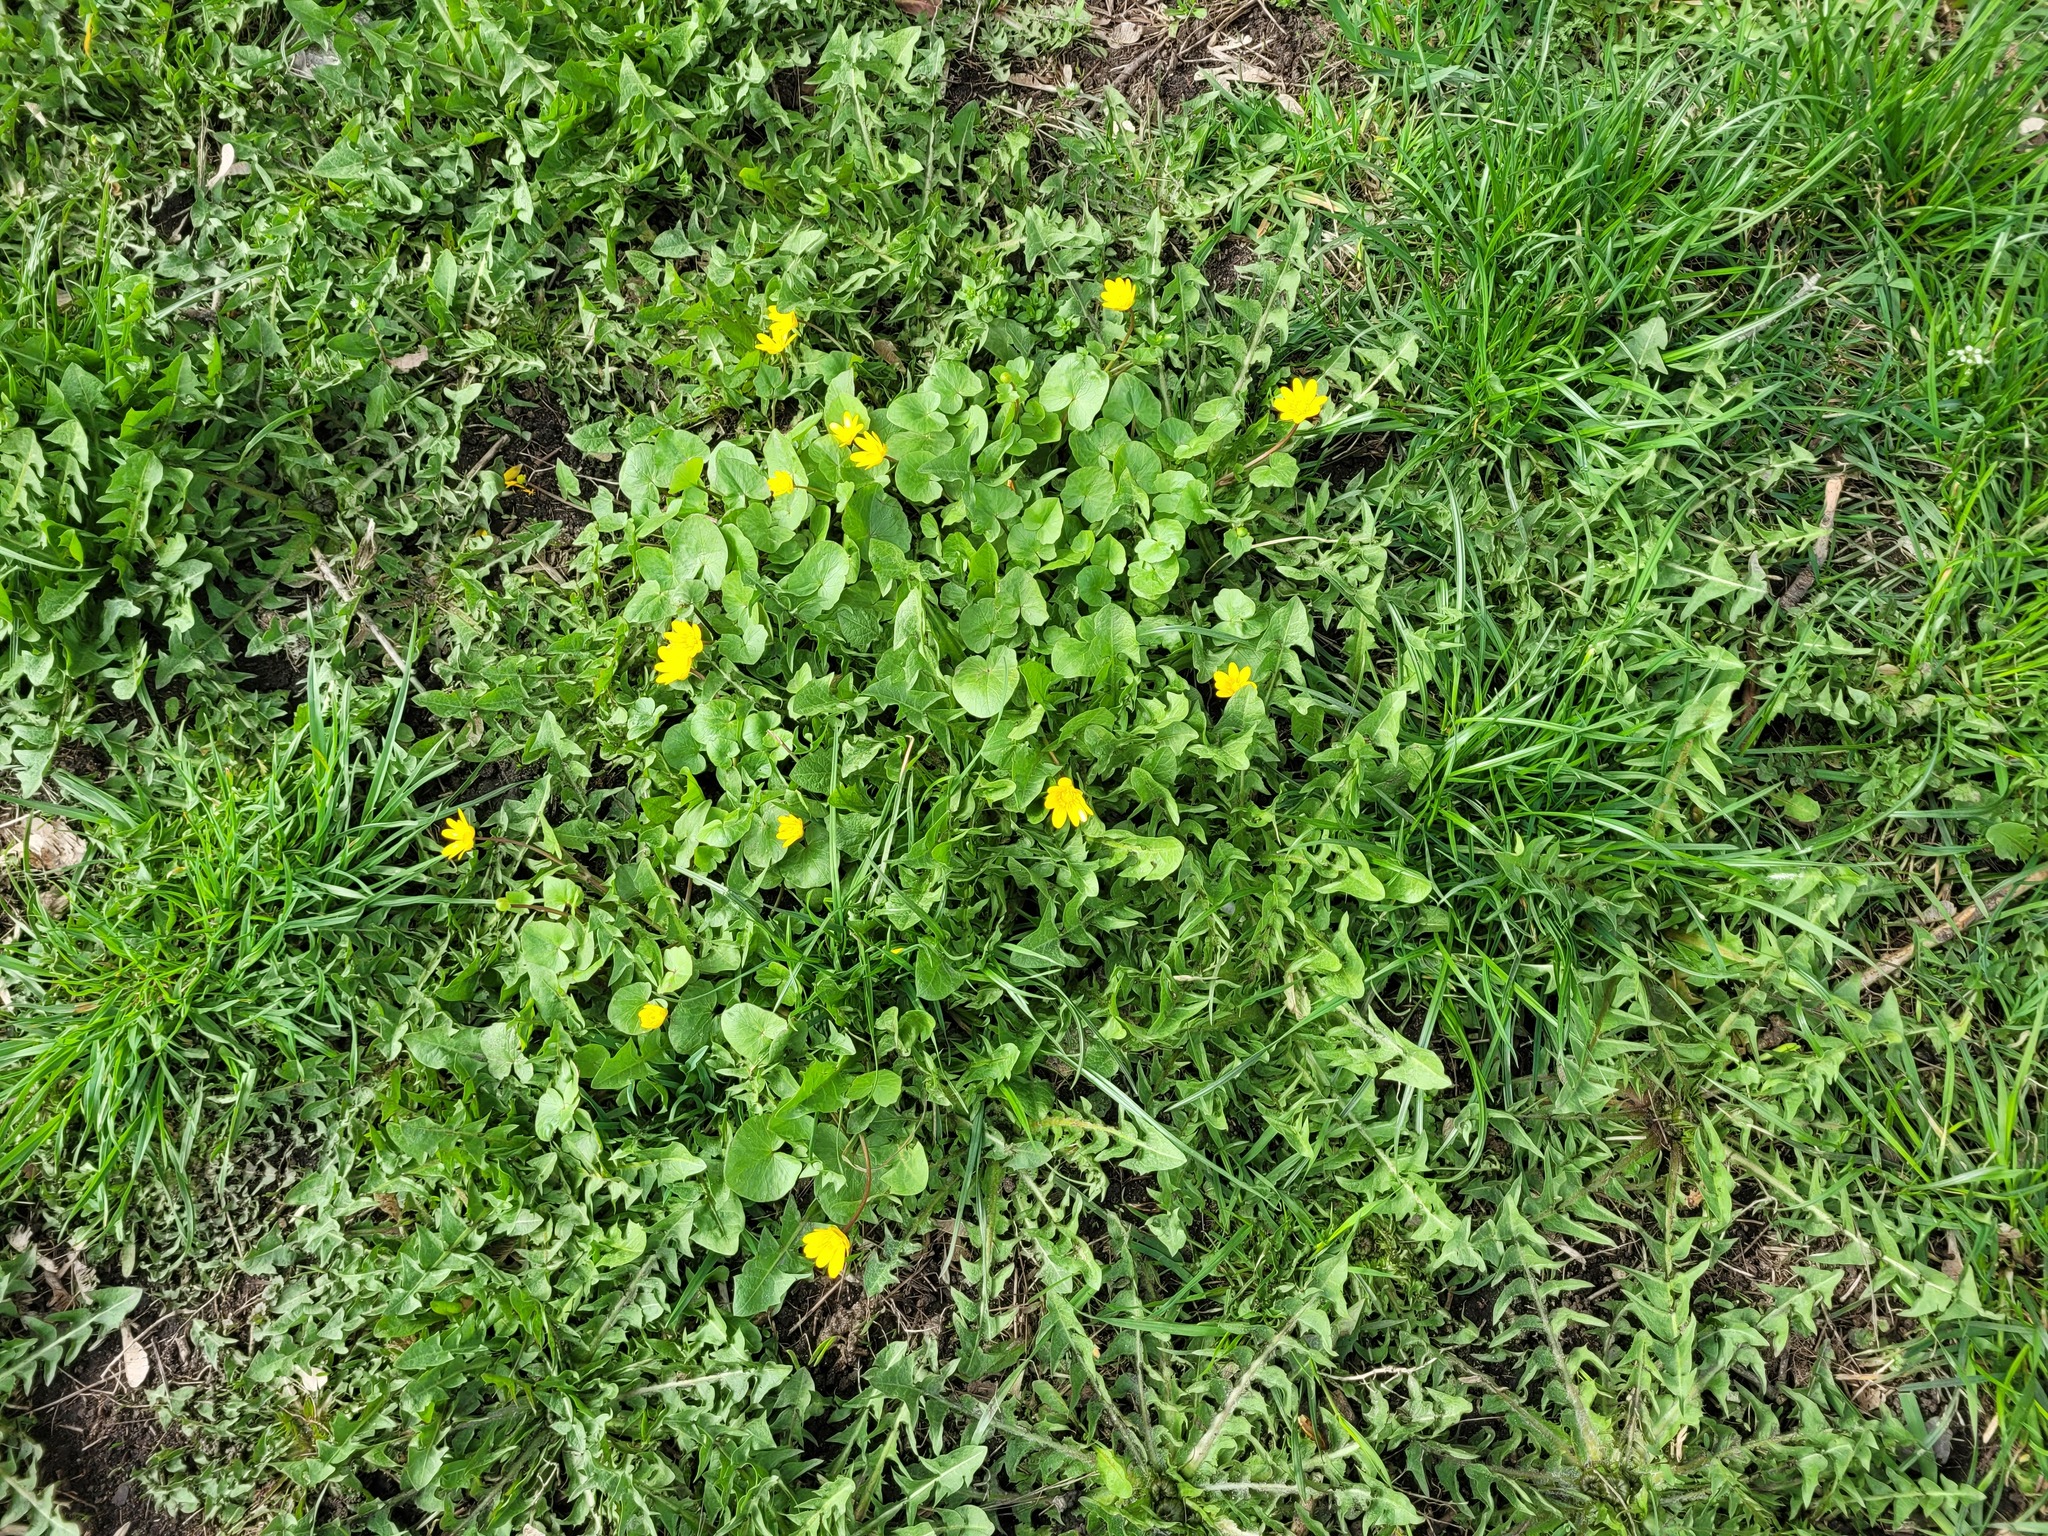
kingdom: Plantae
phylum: Tracheophyta
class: Magnoliopsida
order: Ranunculales
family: Ranunculaceae
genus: Ficaria
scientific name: Ficaria verna
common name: Lesser celandine
